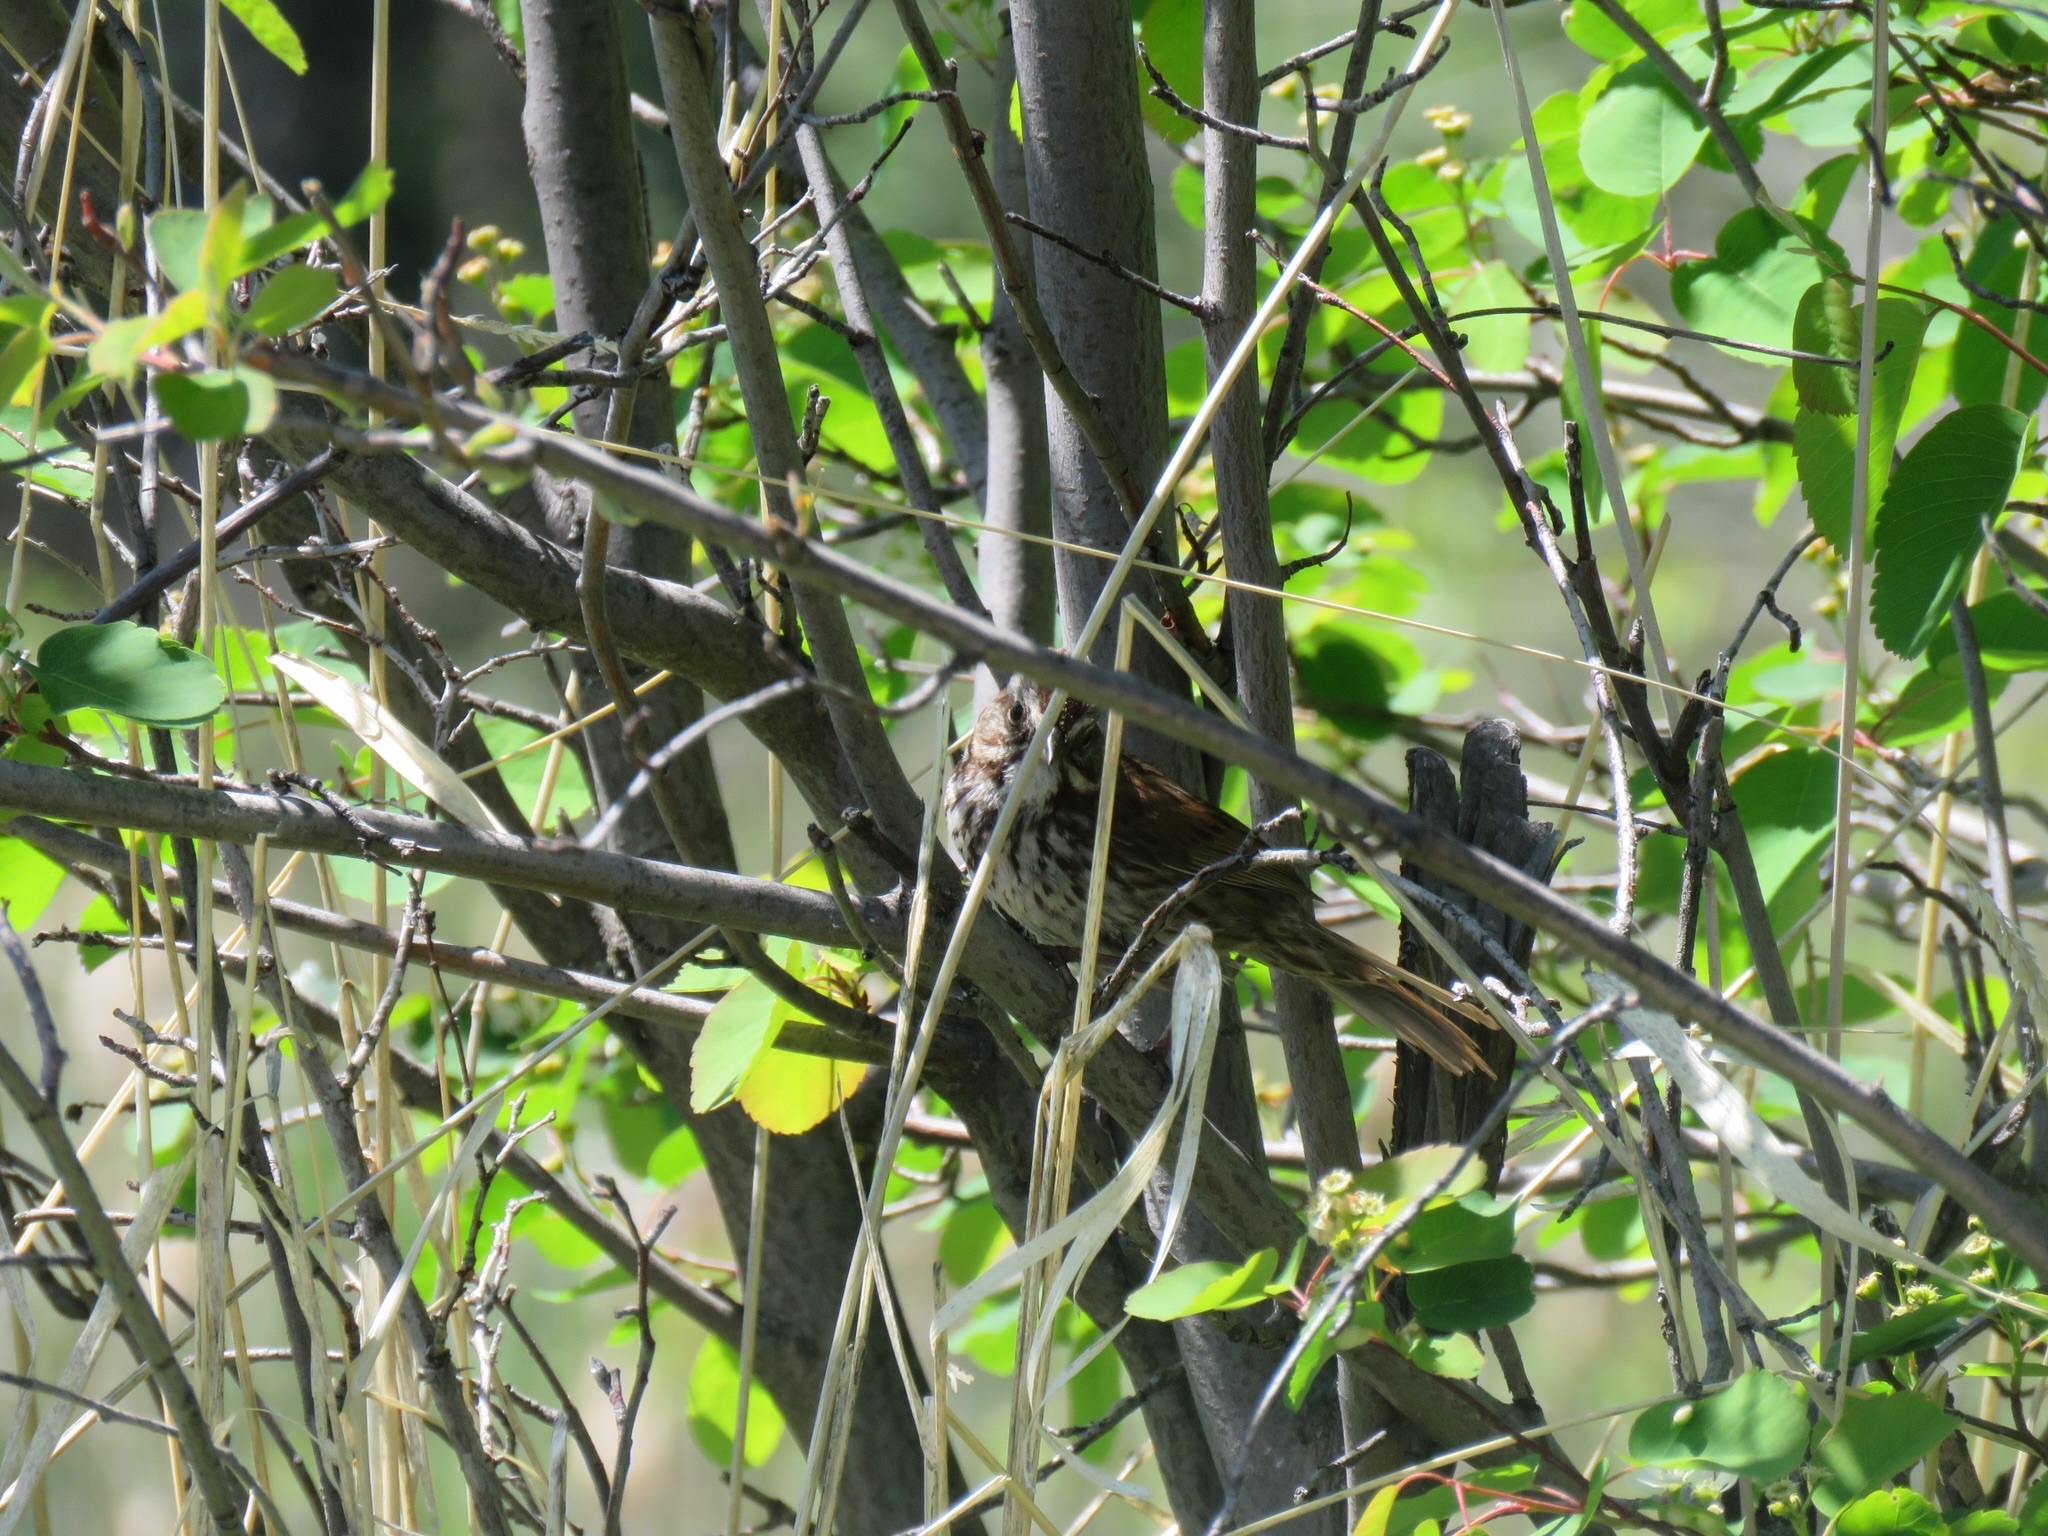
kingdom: Animalia
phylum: Chordata
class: Aves
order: Passeriformes
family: Passerellidae
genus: Melospiza
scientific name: Melospiza melodia
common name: Song sparrow
